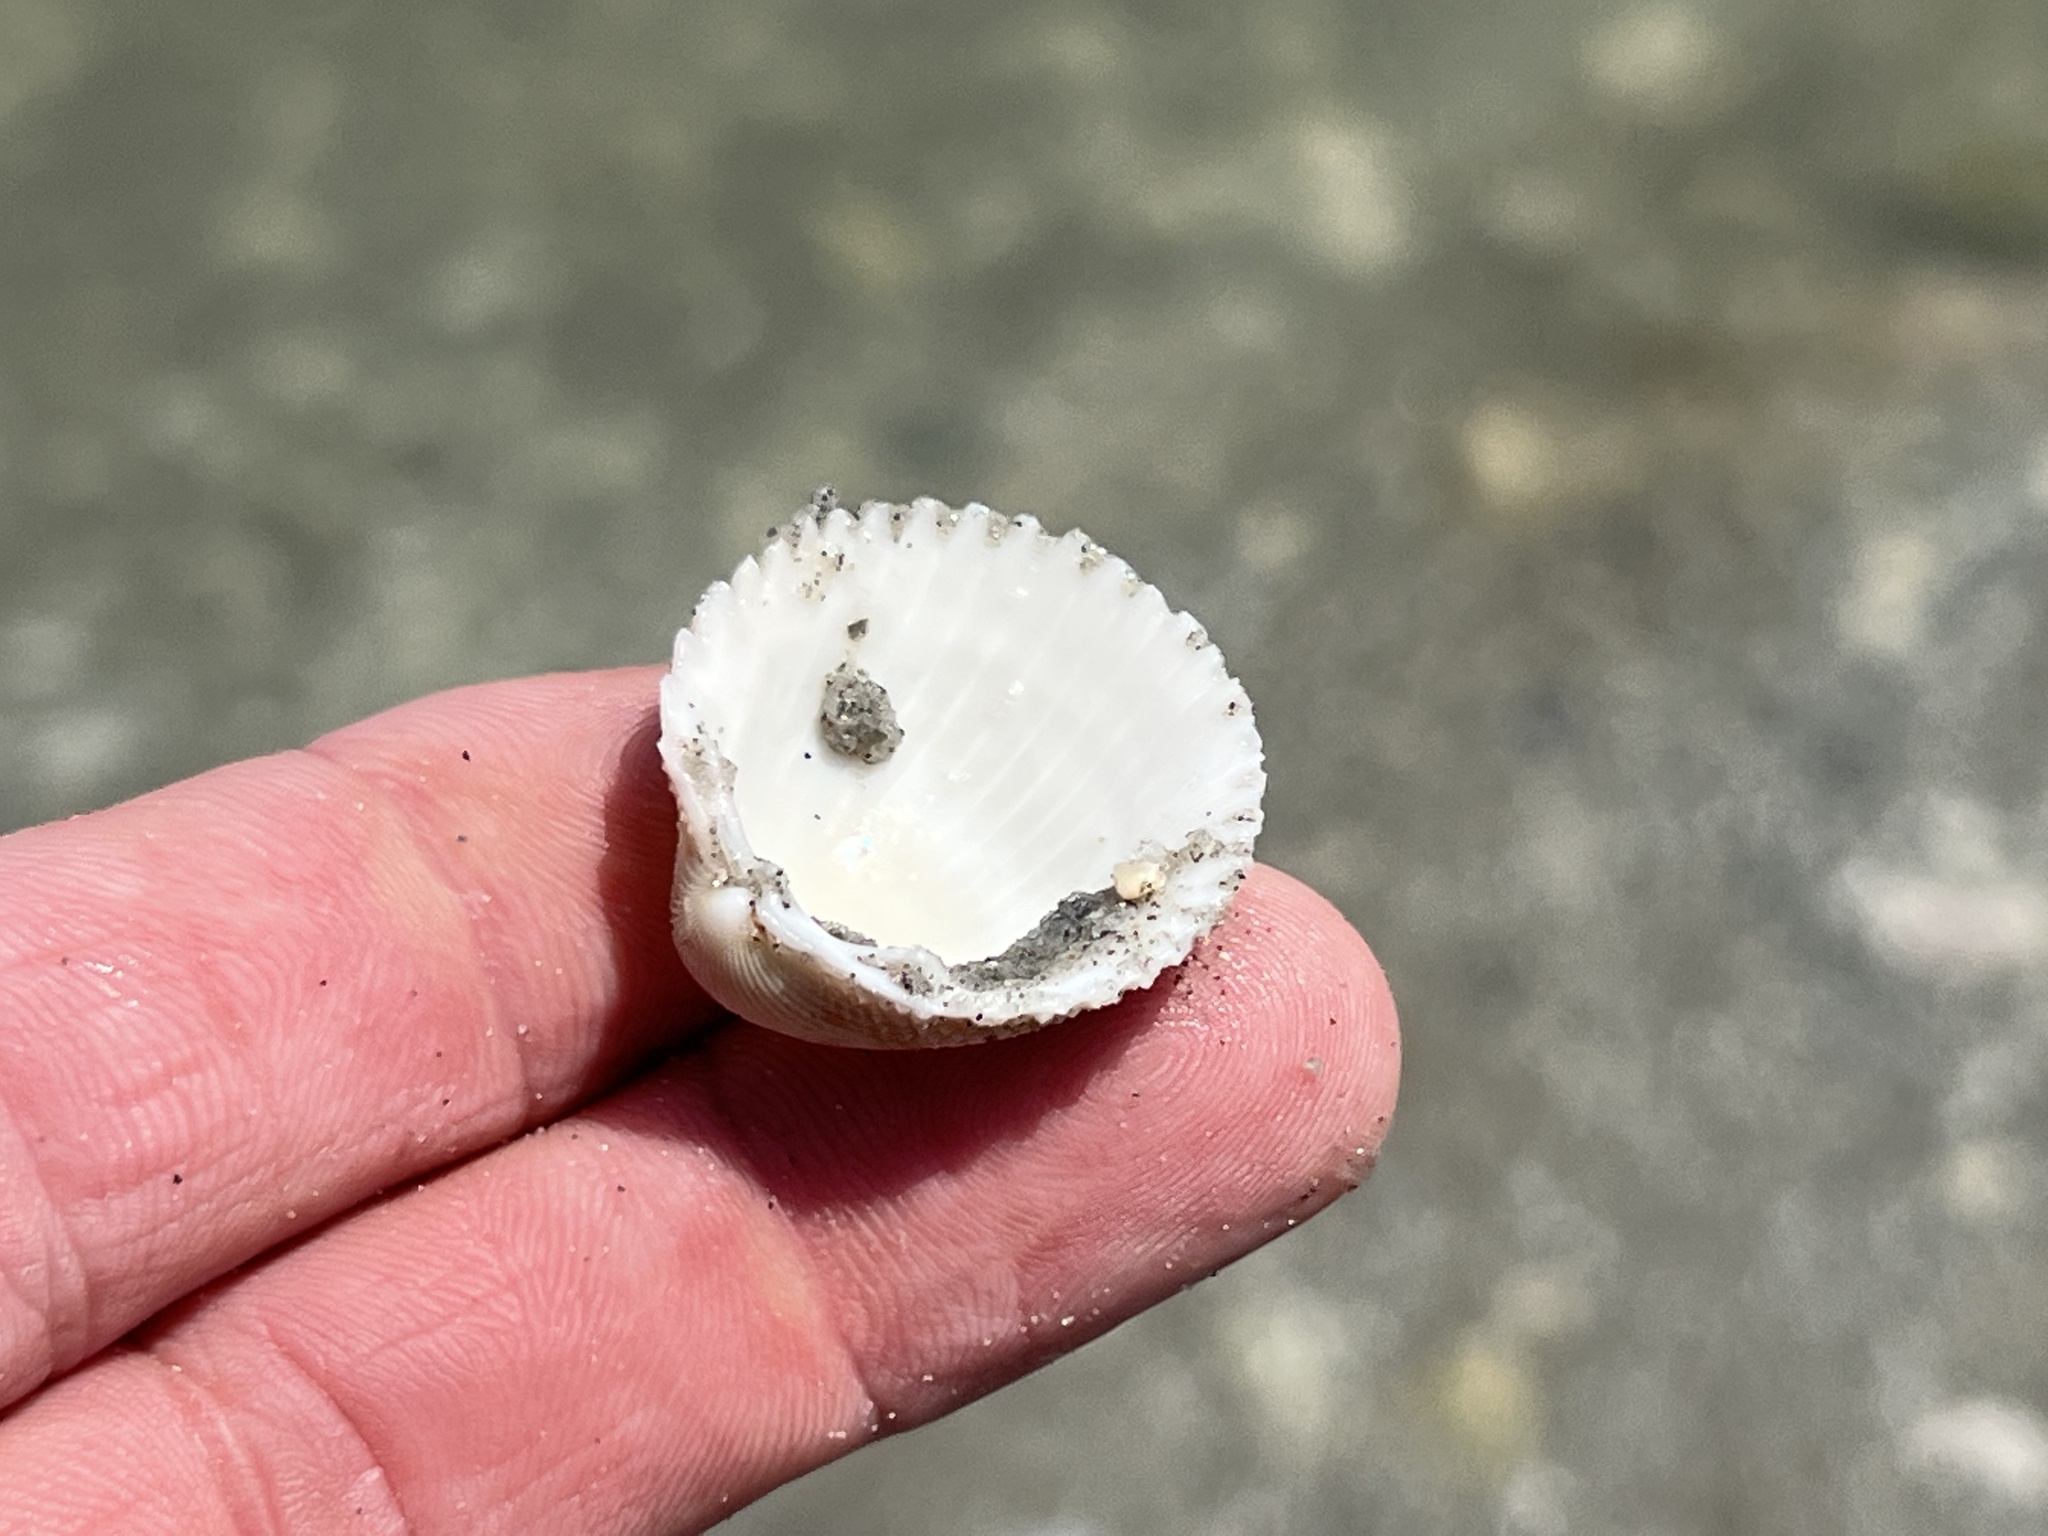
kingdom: Animalia
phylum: Mollusca
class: Bivalvia
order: Cardiida
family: Cardiidae
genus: Dallocardia
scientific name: Dallocardia muricata
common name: Yellow pricklycockle
